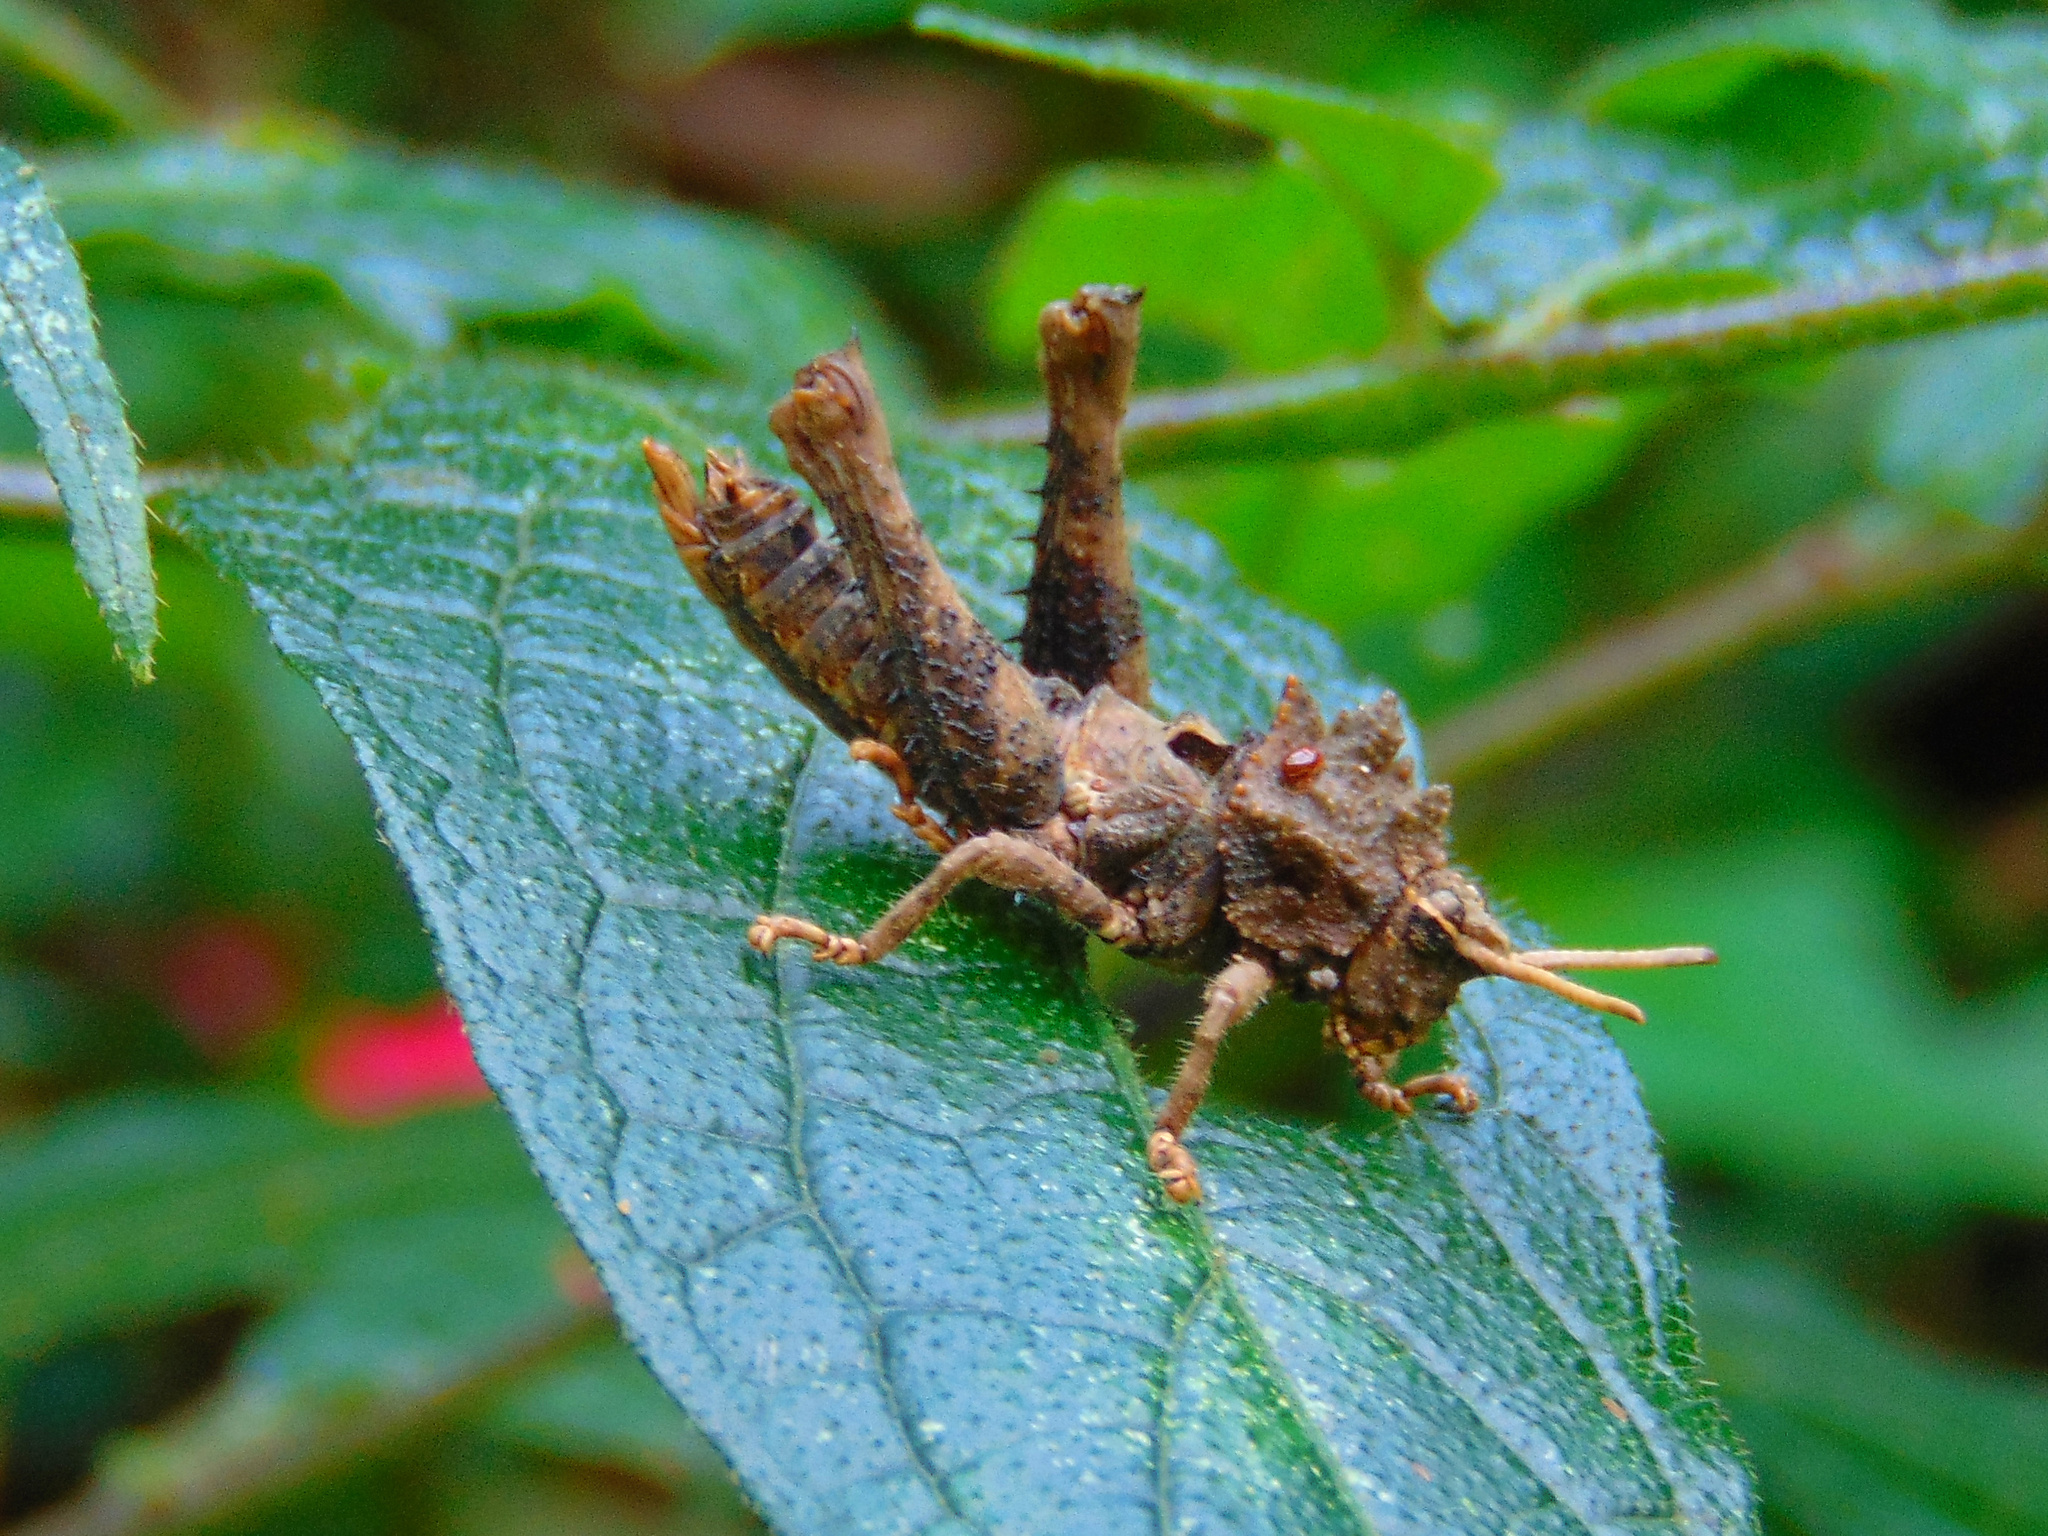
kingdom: Animalia
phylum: Arthropoda
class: Insecta
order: Orthoptera
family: Acrididae
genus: Pycnosarcus
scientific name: Pycnosarcus atavus
